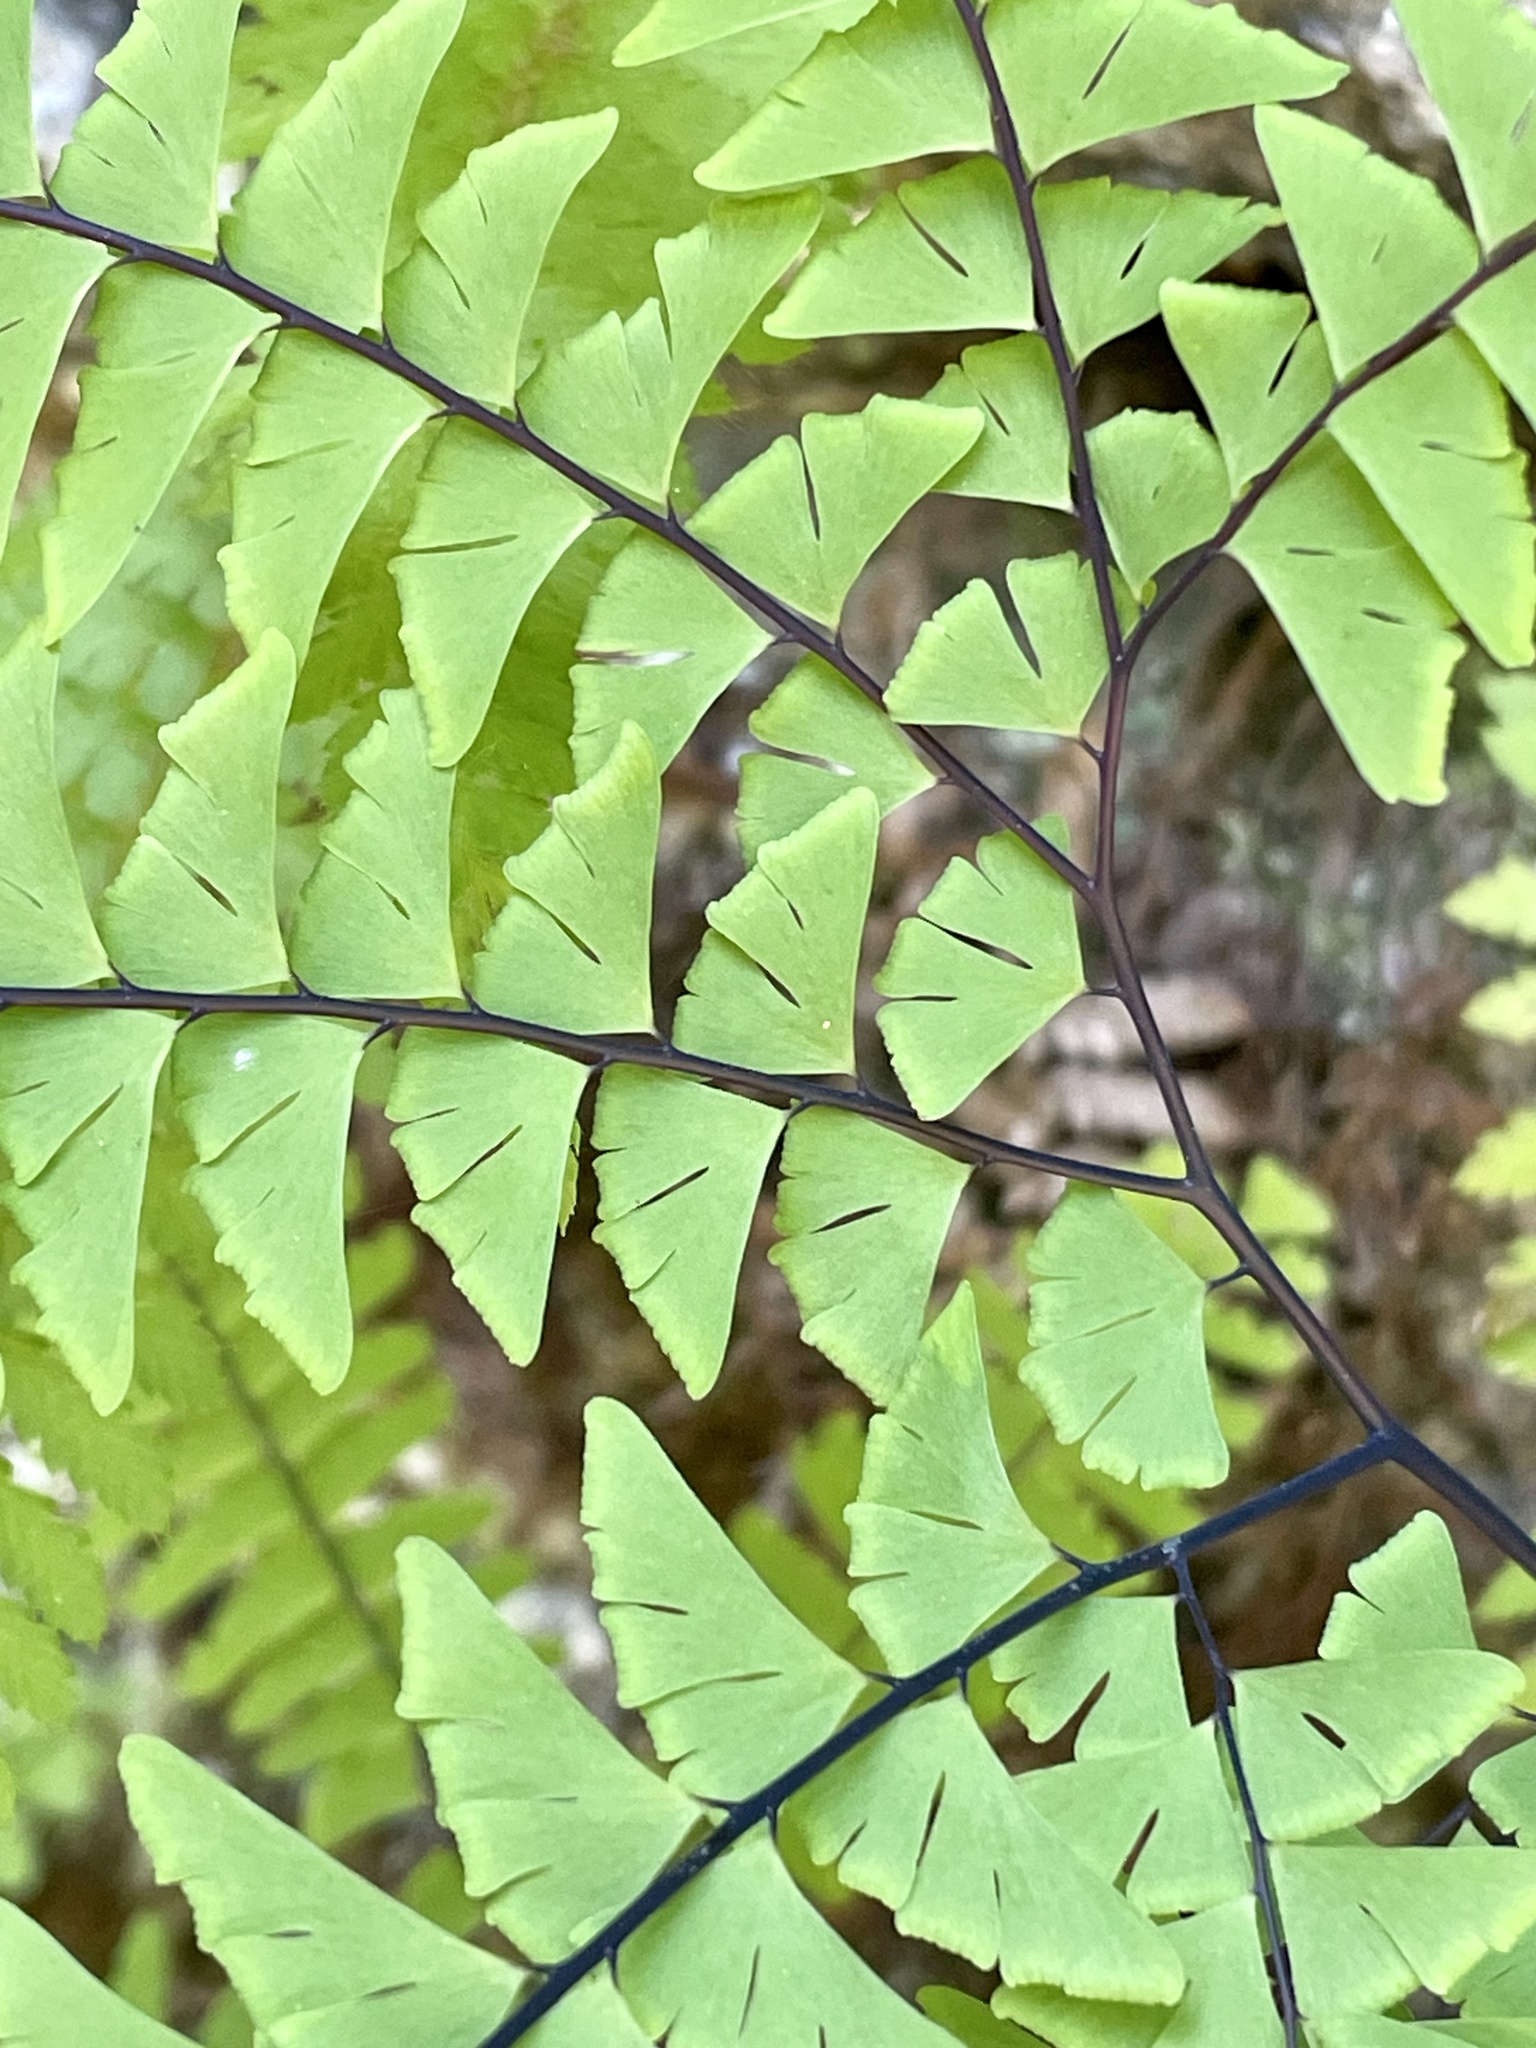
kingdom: Plantae
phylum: Tracheophyta
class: Polypodiopsida
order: Polypodiales
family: Pteridaceae
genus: Adiantum
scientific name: Adiantum aleuticum
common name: Aleutian maidenhair fern
